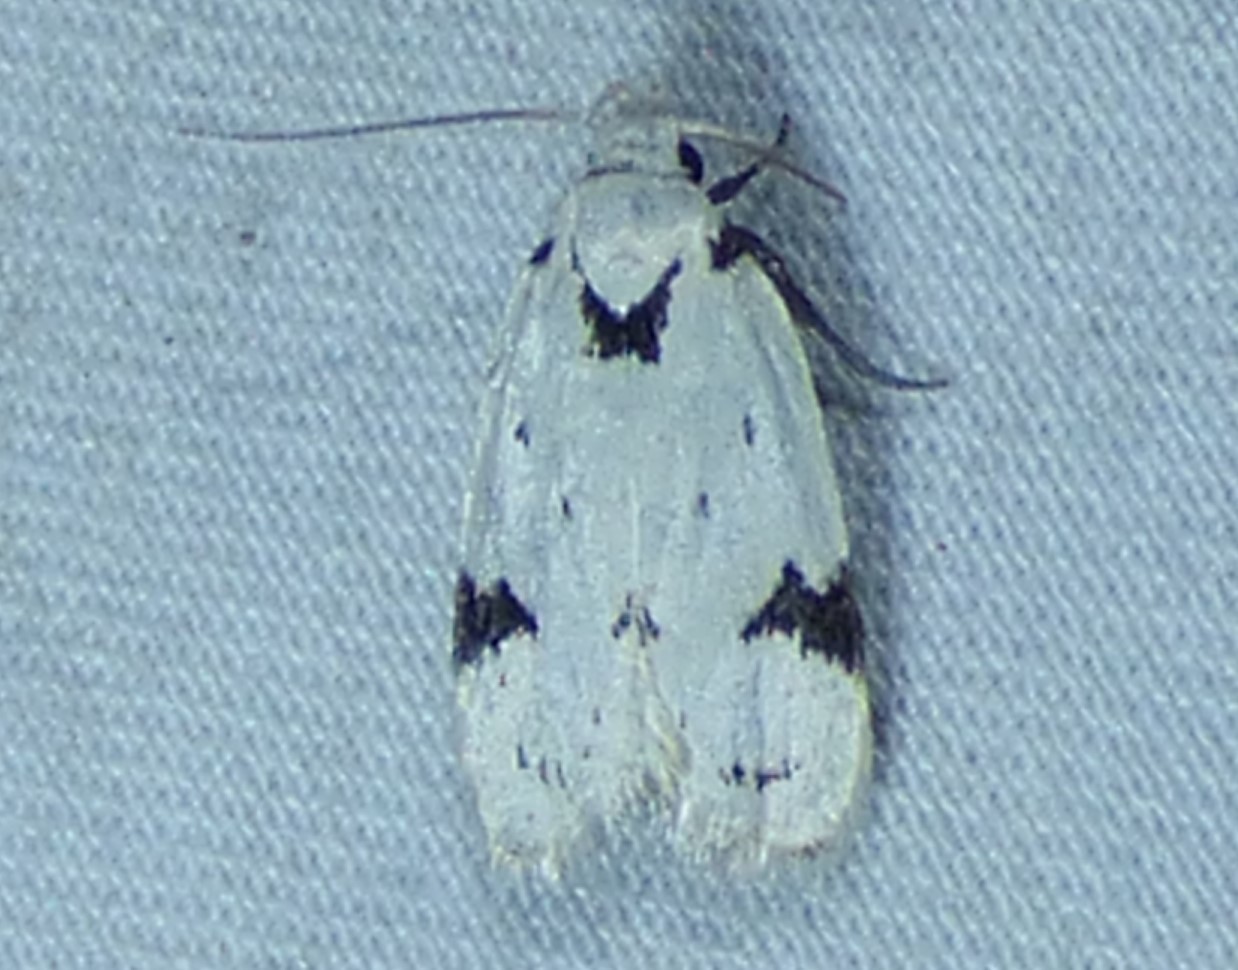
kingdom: Animalia
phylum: Arthropoda
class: Insecta
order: Lepidoptera
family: Oecophoridae
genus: Inga
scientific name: Inga sparsiciliella
